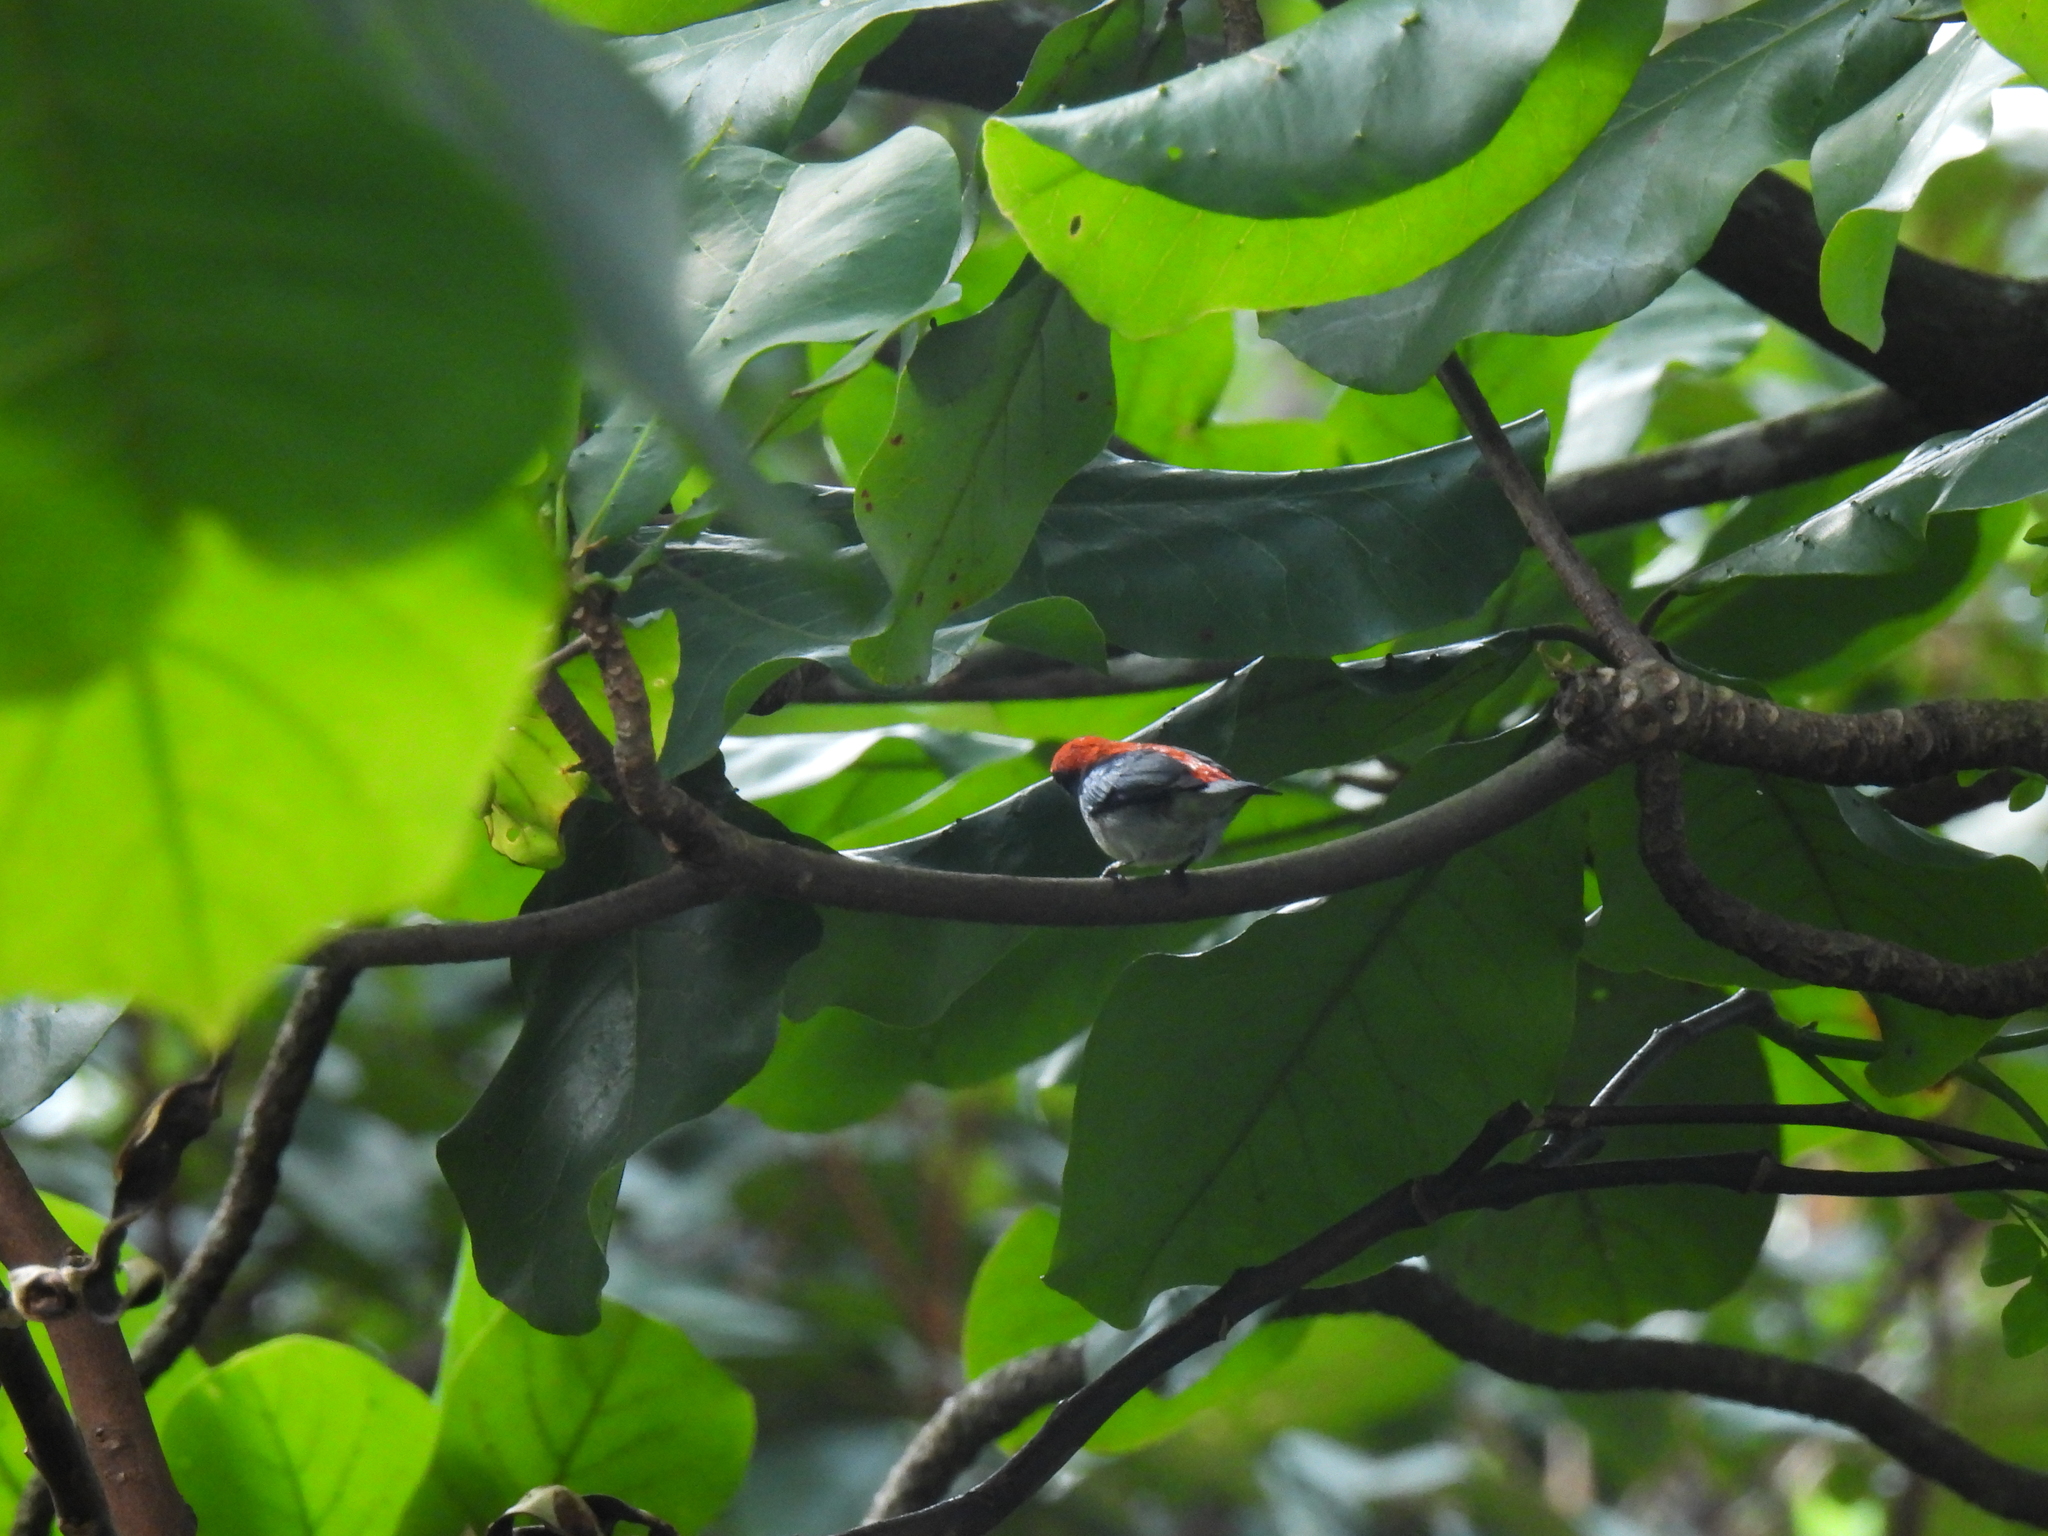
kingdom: Animalia
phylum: Chordata
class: Aves
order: Passeriformes
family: Dicaeidae
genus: Dicaeum
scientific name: Dicaeum cruentatum
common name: Scarlet-backed flowerpecker
